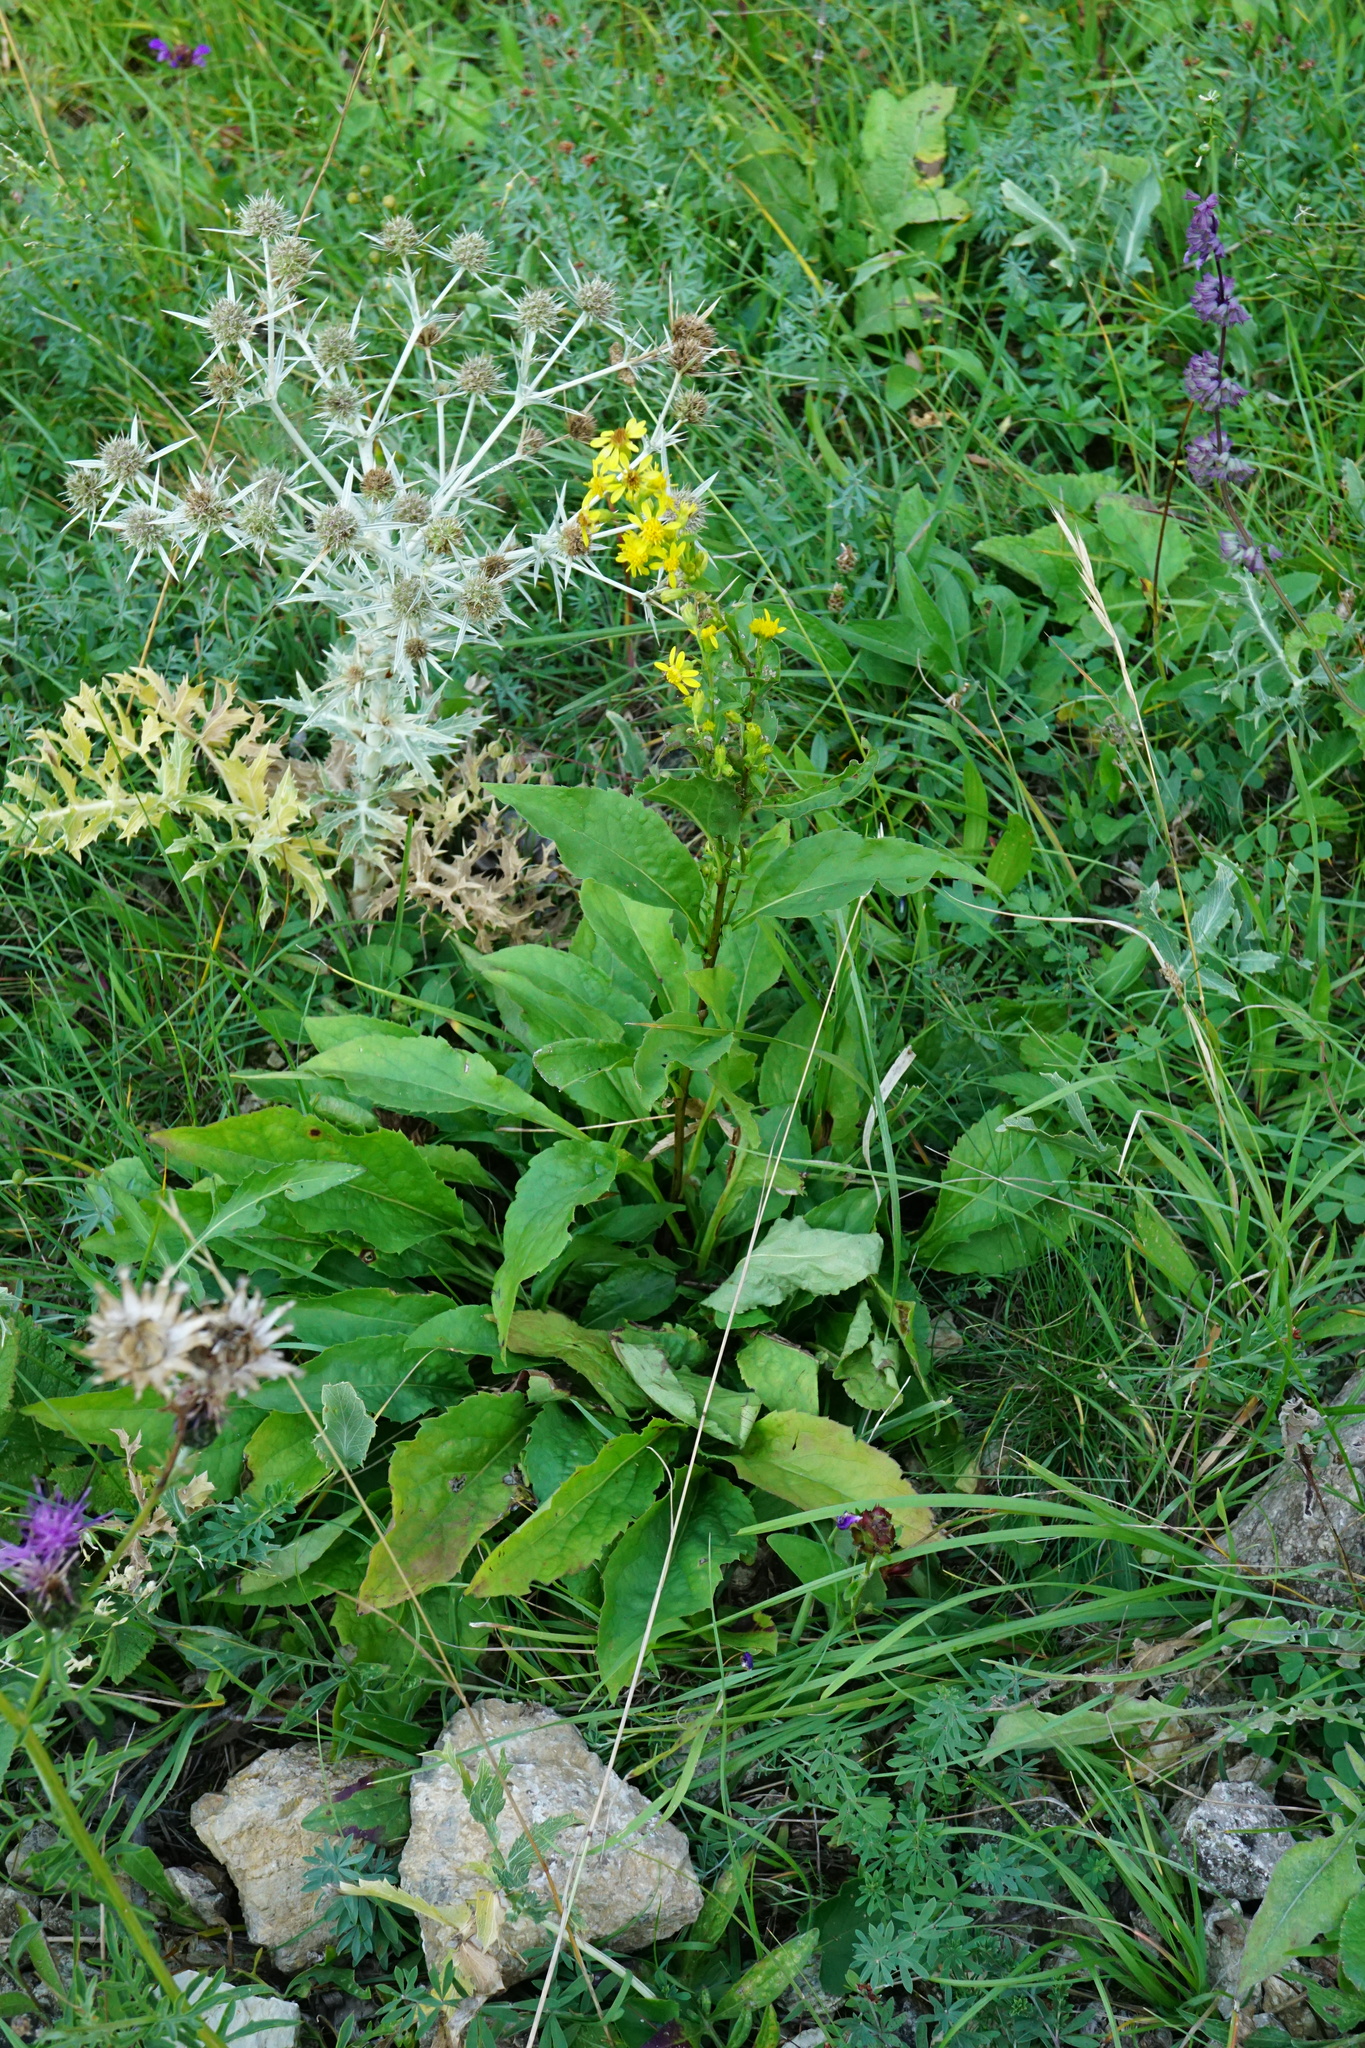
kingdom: Plantae
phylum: Tracheophyta
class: Magnoliopsida
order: Asterales
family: Asteraceae
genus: Solidago
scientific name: Solidago virgaurea
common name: Goldenrod
